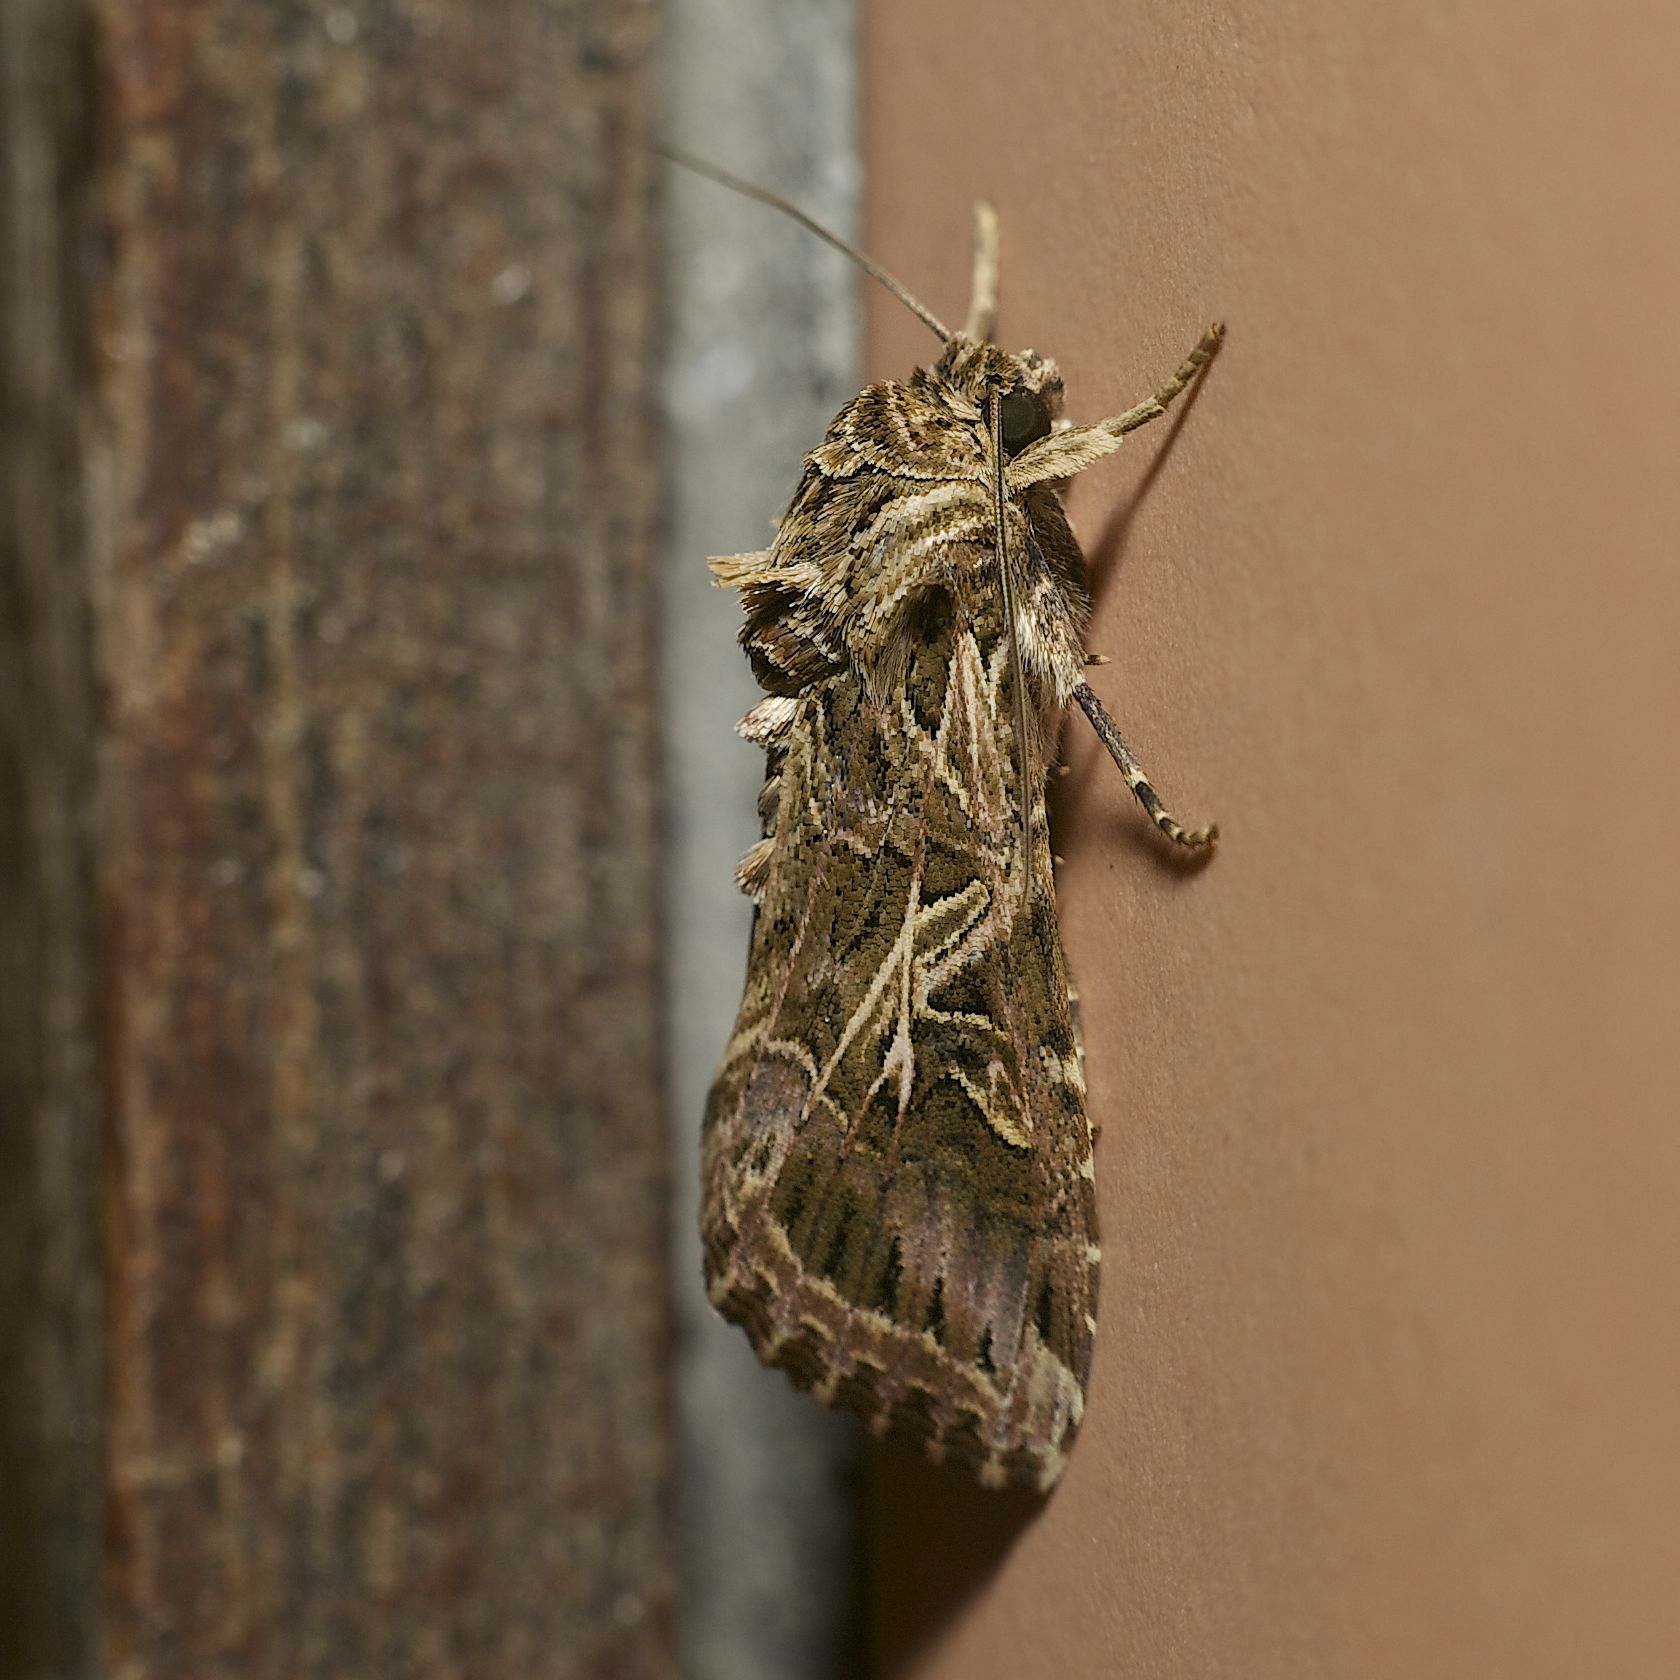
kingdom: Animalia
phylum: Arthropoda
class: Insecta
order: Lepidoptera
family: Noctuidae
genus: Spodoptera
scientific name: Spodoptera litura
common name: Asian cotton leafworm
